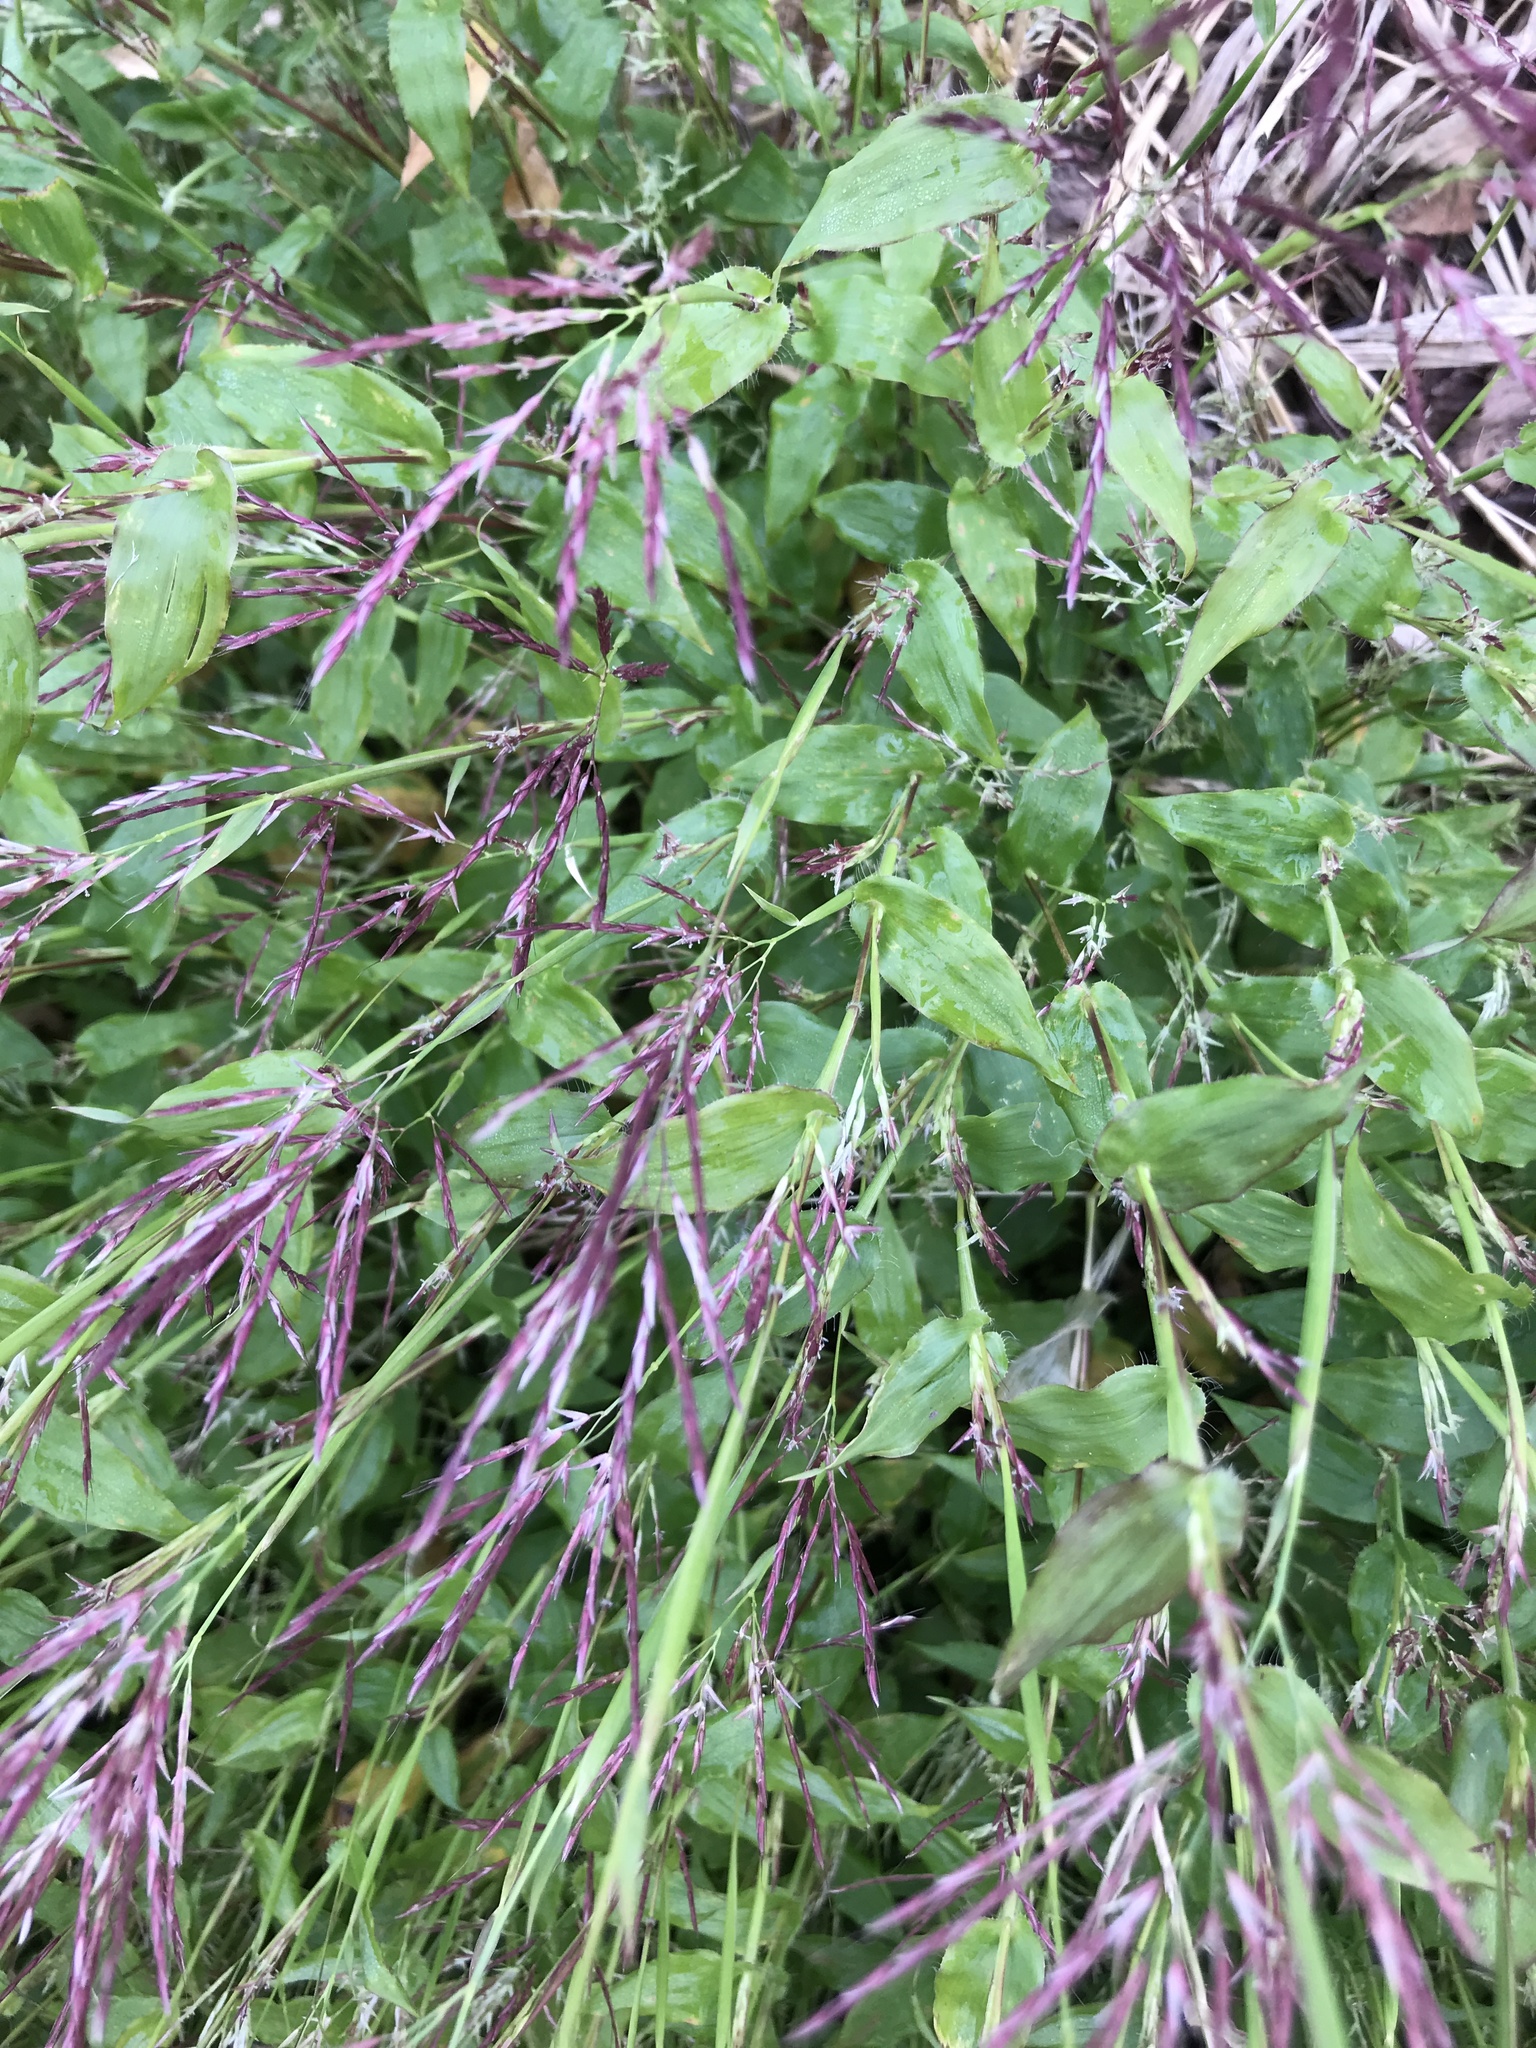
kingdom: Plantae
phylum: Tracheophyta
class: Liliopsida
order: Poales
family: Poaceae
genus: Arthraxon
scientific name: Arthraxon hispidus
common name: Small carpgrass
